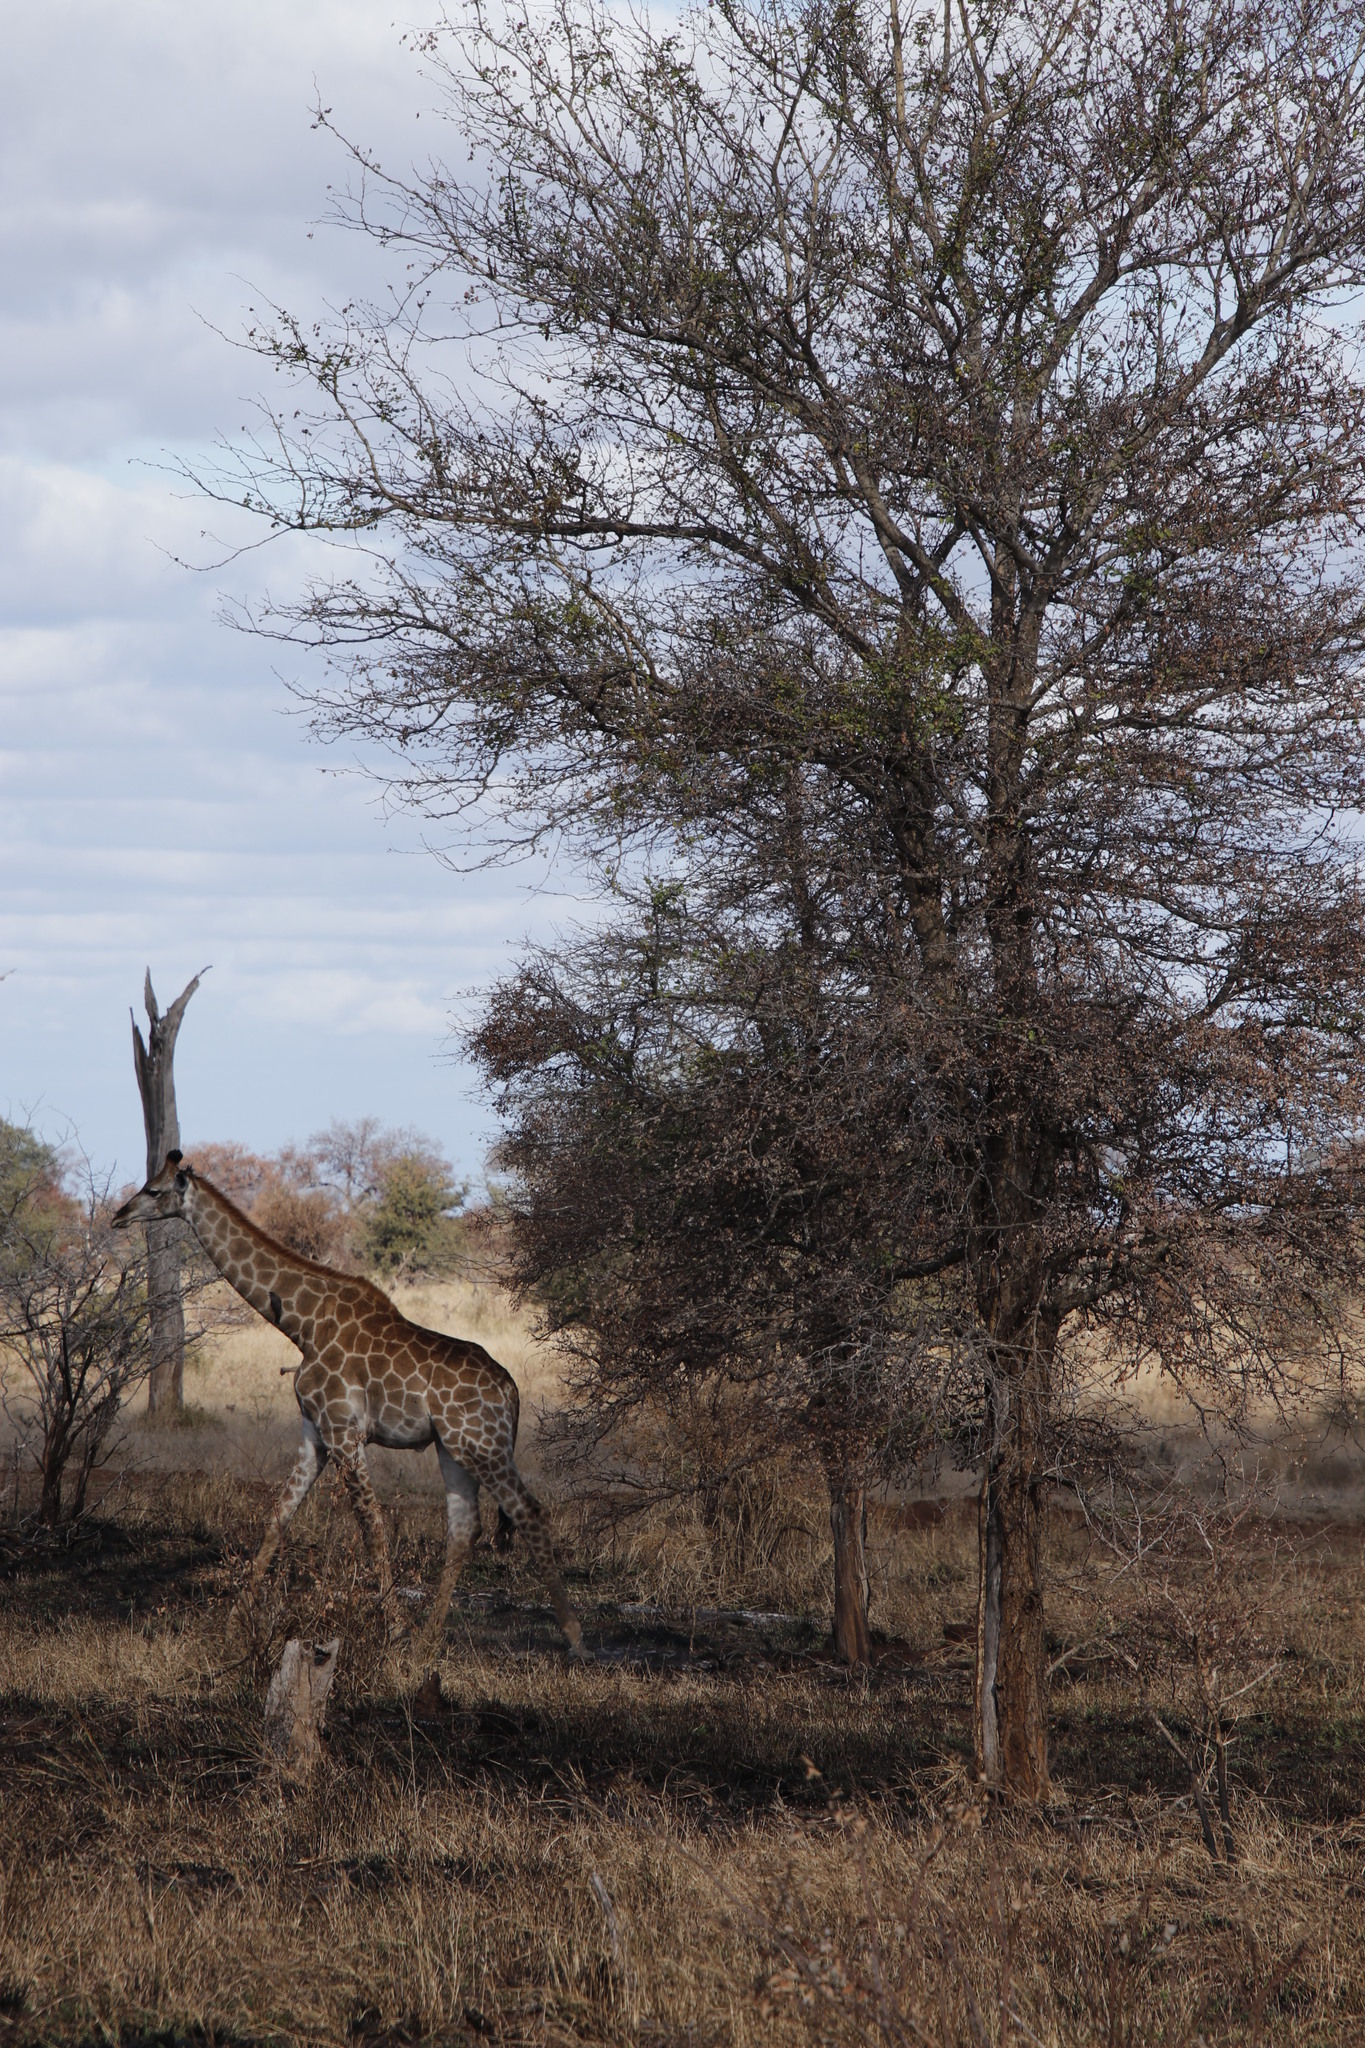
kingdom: Animalia
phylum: Chordata
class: Mammalia
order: Artiodactyla
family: Giraffidae
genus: Giraffa
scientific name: Giraffa giraffa
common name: Southern giraffe
